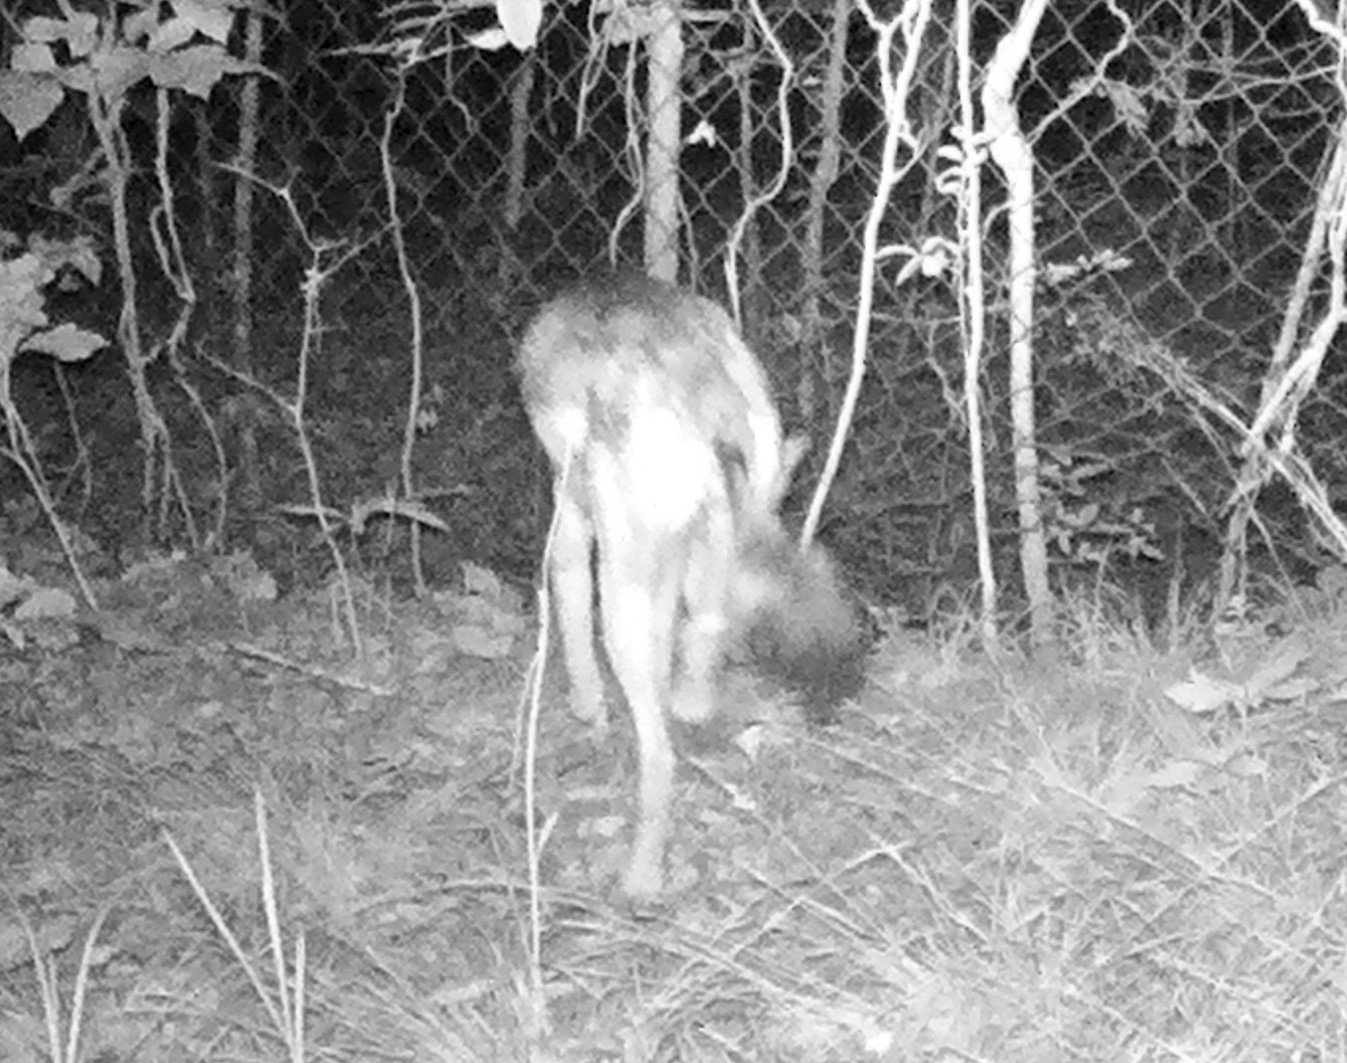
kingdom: Animalia
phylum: Chordata
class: Mammalia
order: Carnivora
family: Canidae
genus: Canis
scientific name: Canis latrans
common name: Coyote
